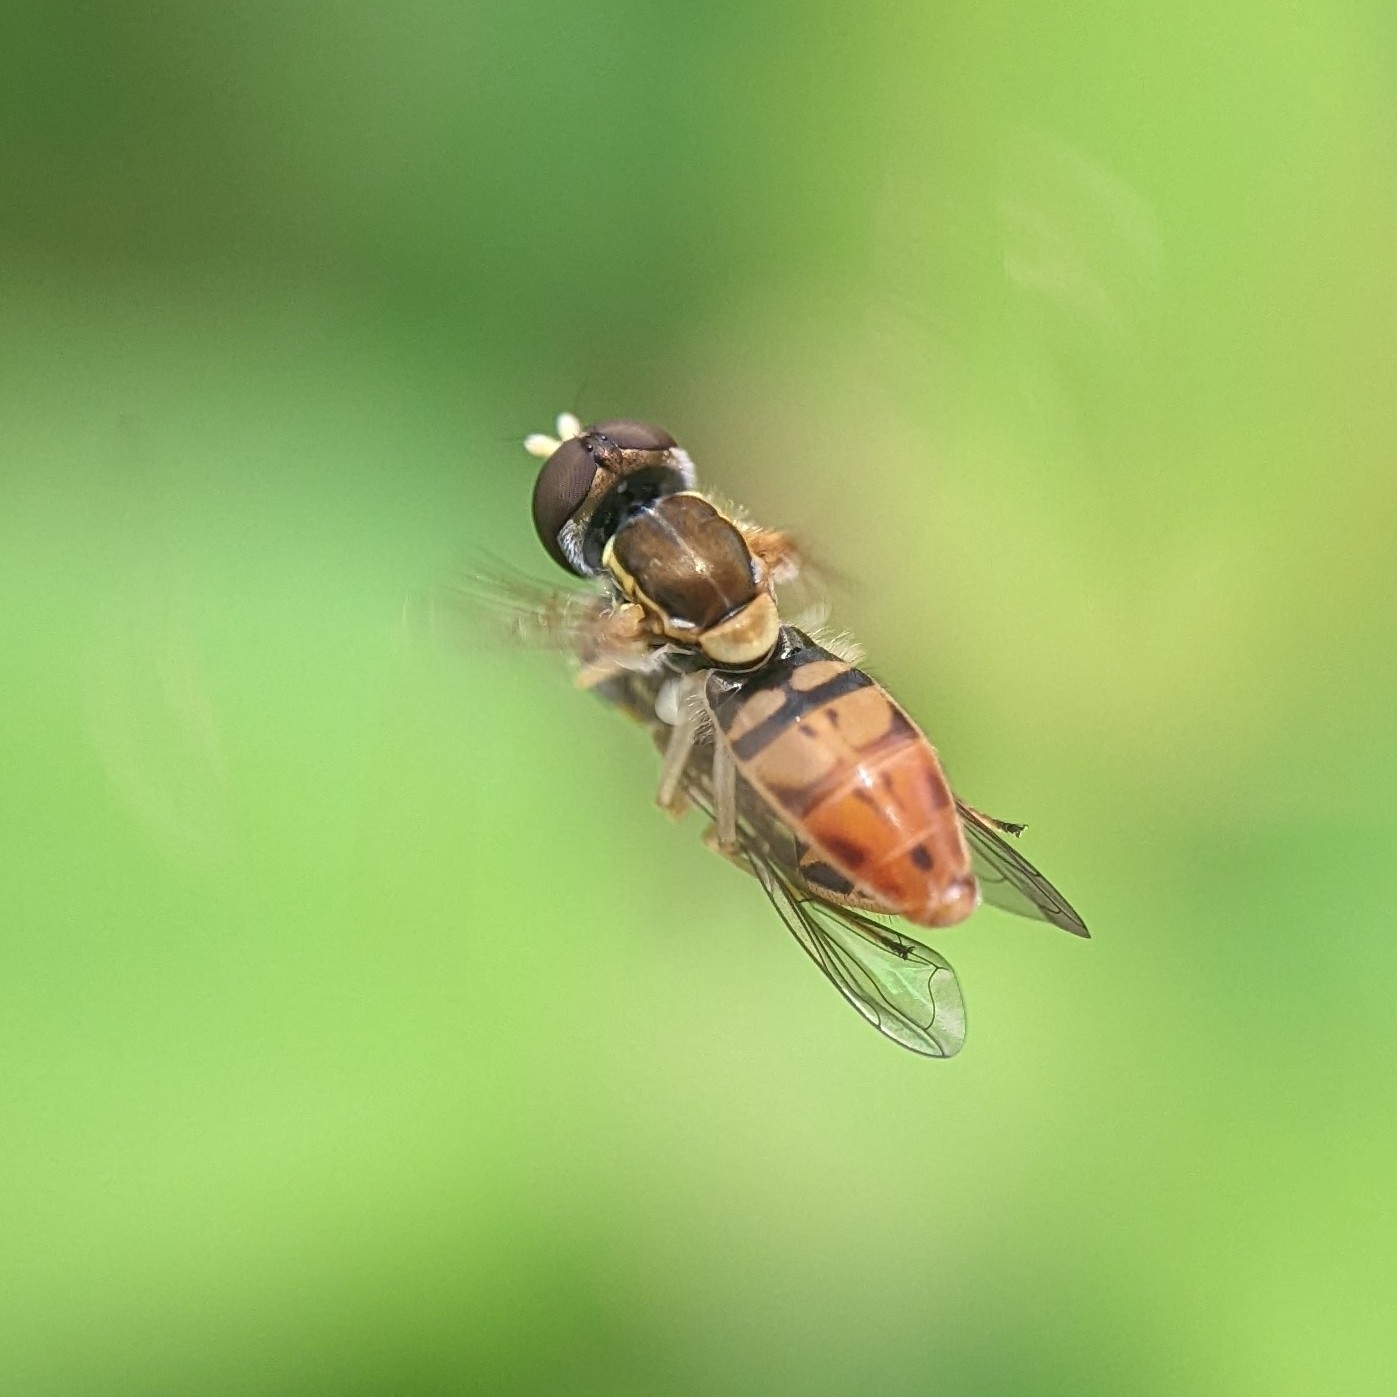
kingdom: Animalia
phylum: Arthropoda
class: Insecta
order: Diptera
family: Syrphidae
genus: Toxomerus
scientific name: Toxomerus marginatus
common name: Syrphid fly
